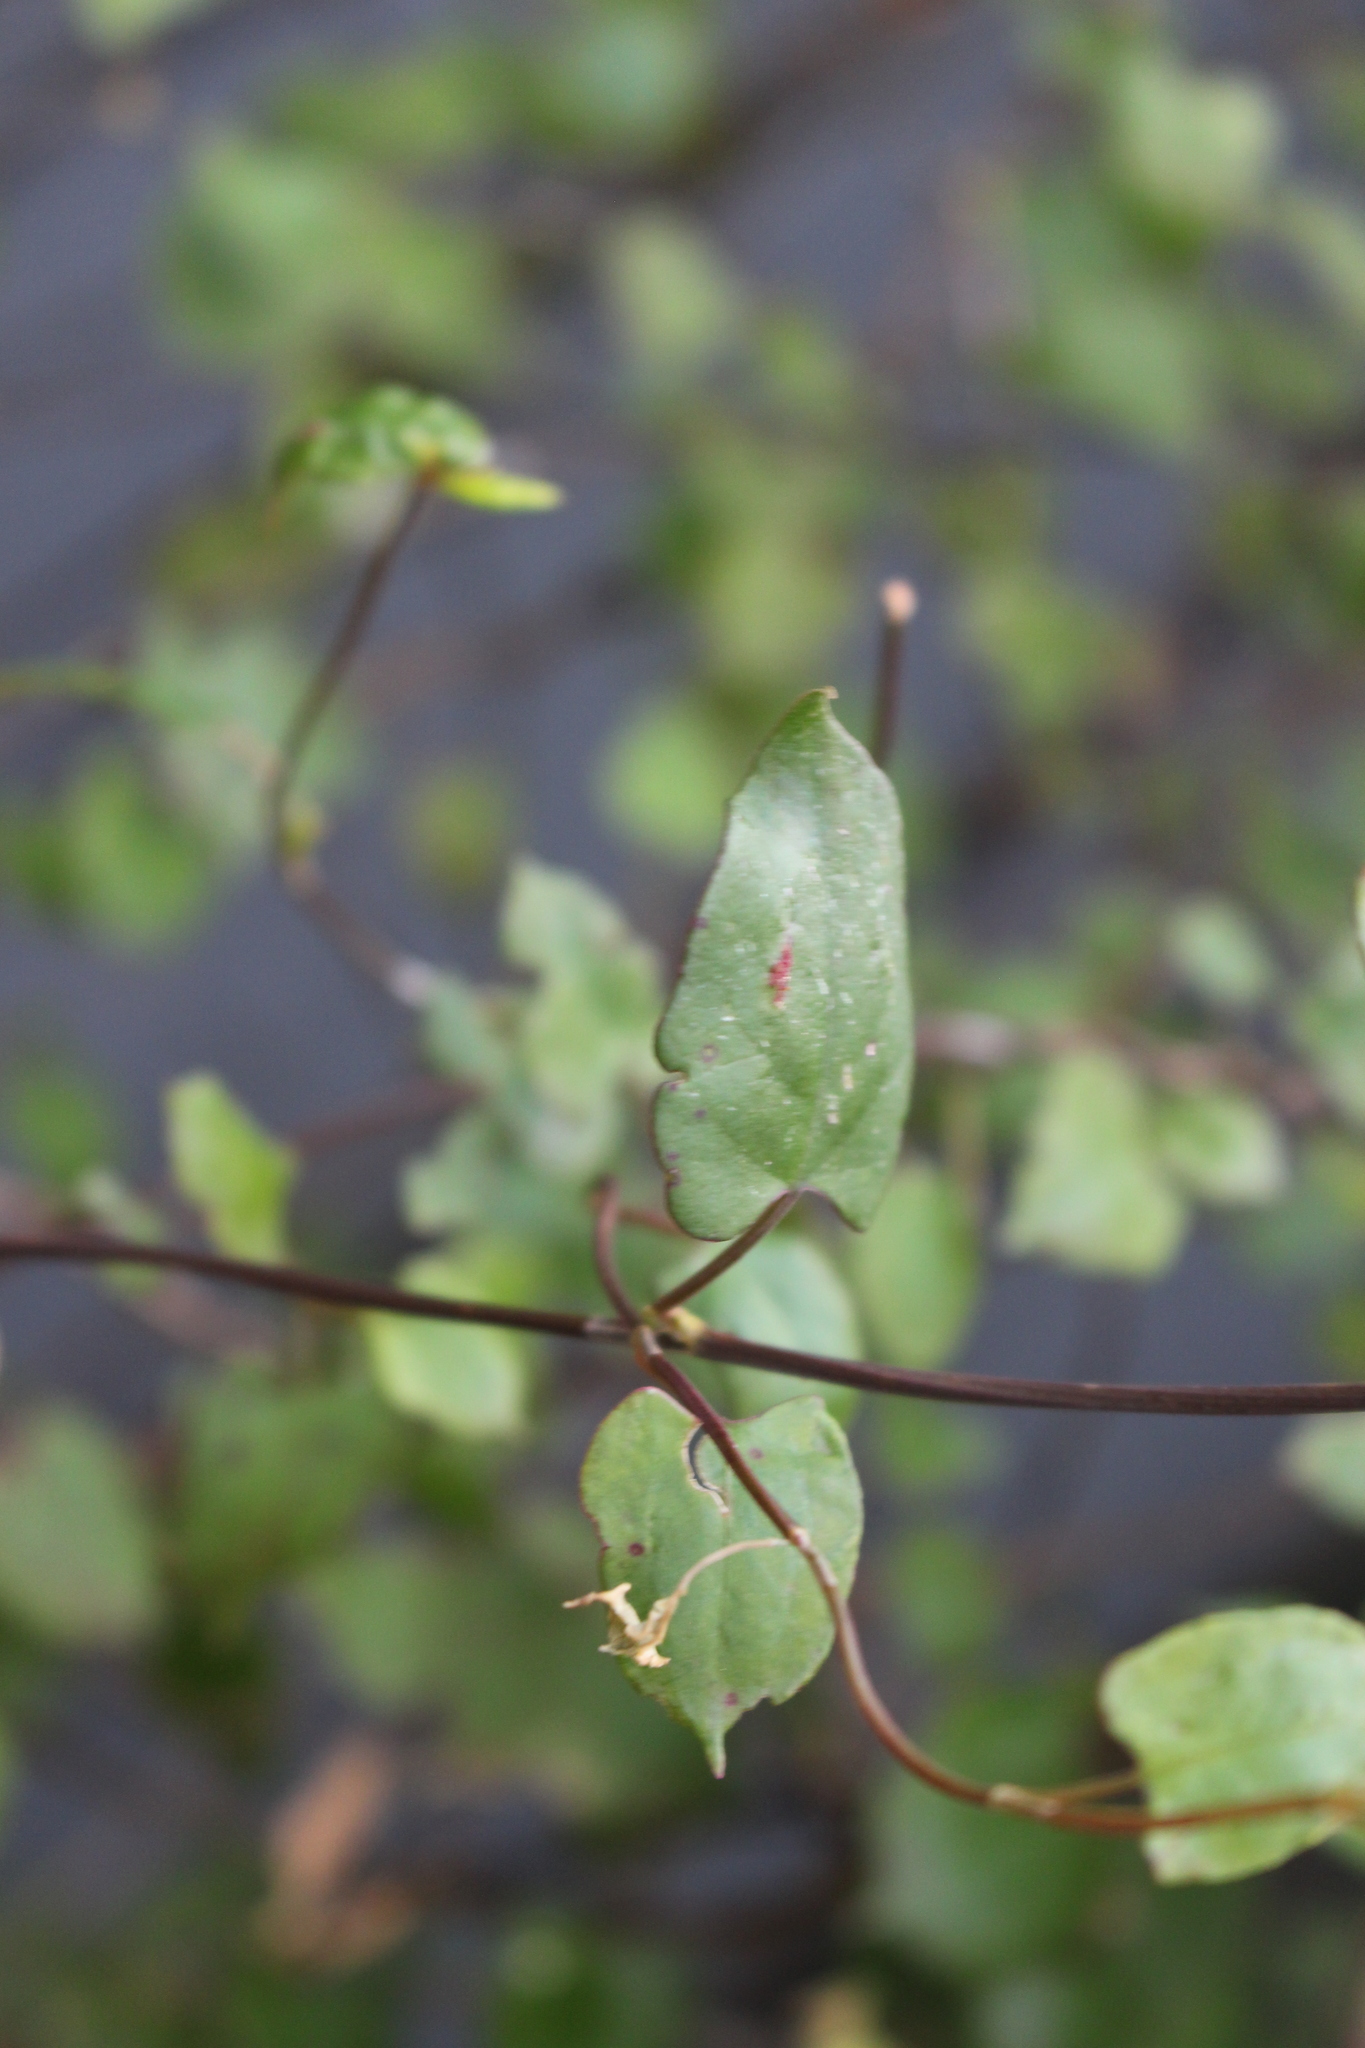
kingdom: Plantae
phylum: Tracheophyta
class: Magnoliopsida
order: Caryophyllales
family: Polygonaceae
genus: Muehlenbeckia
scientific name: Muehlenbeckia australis
